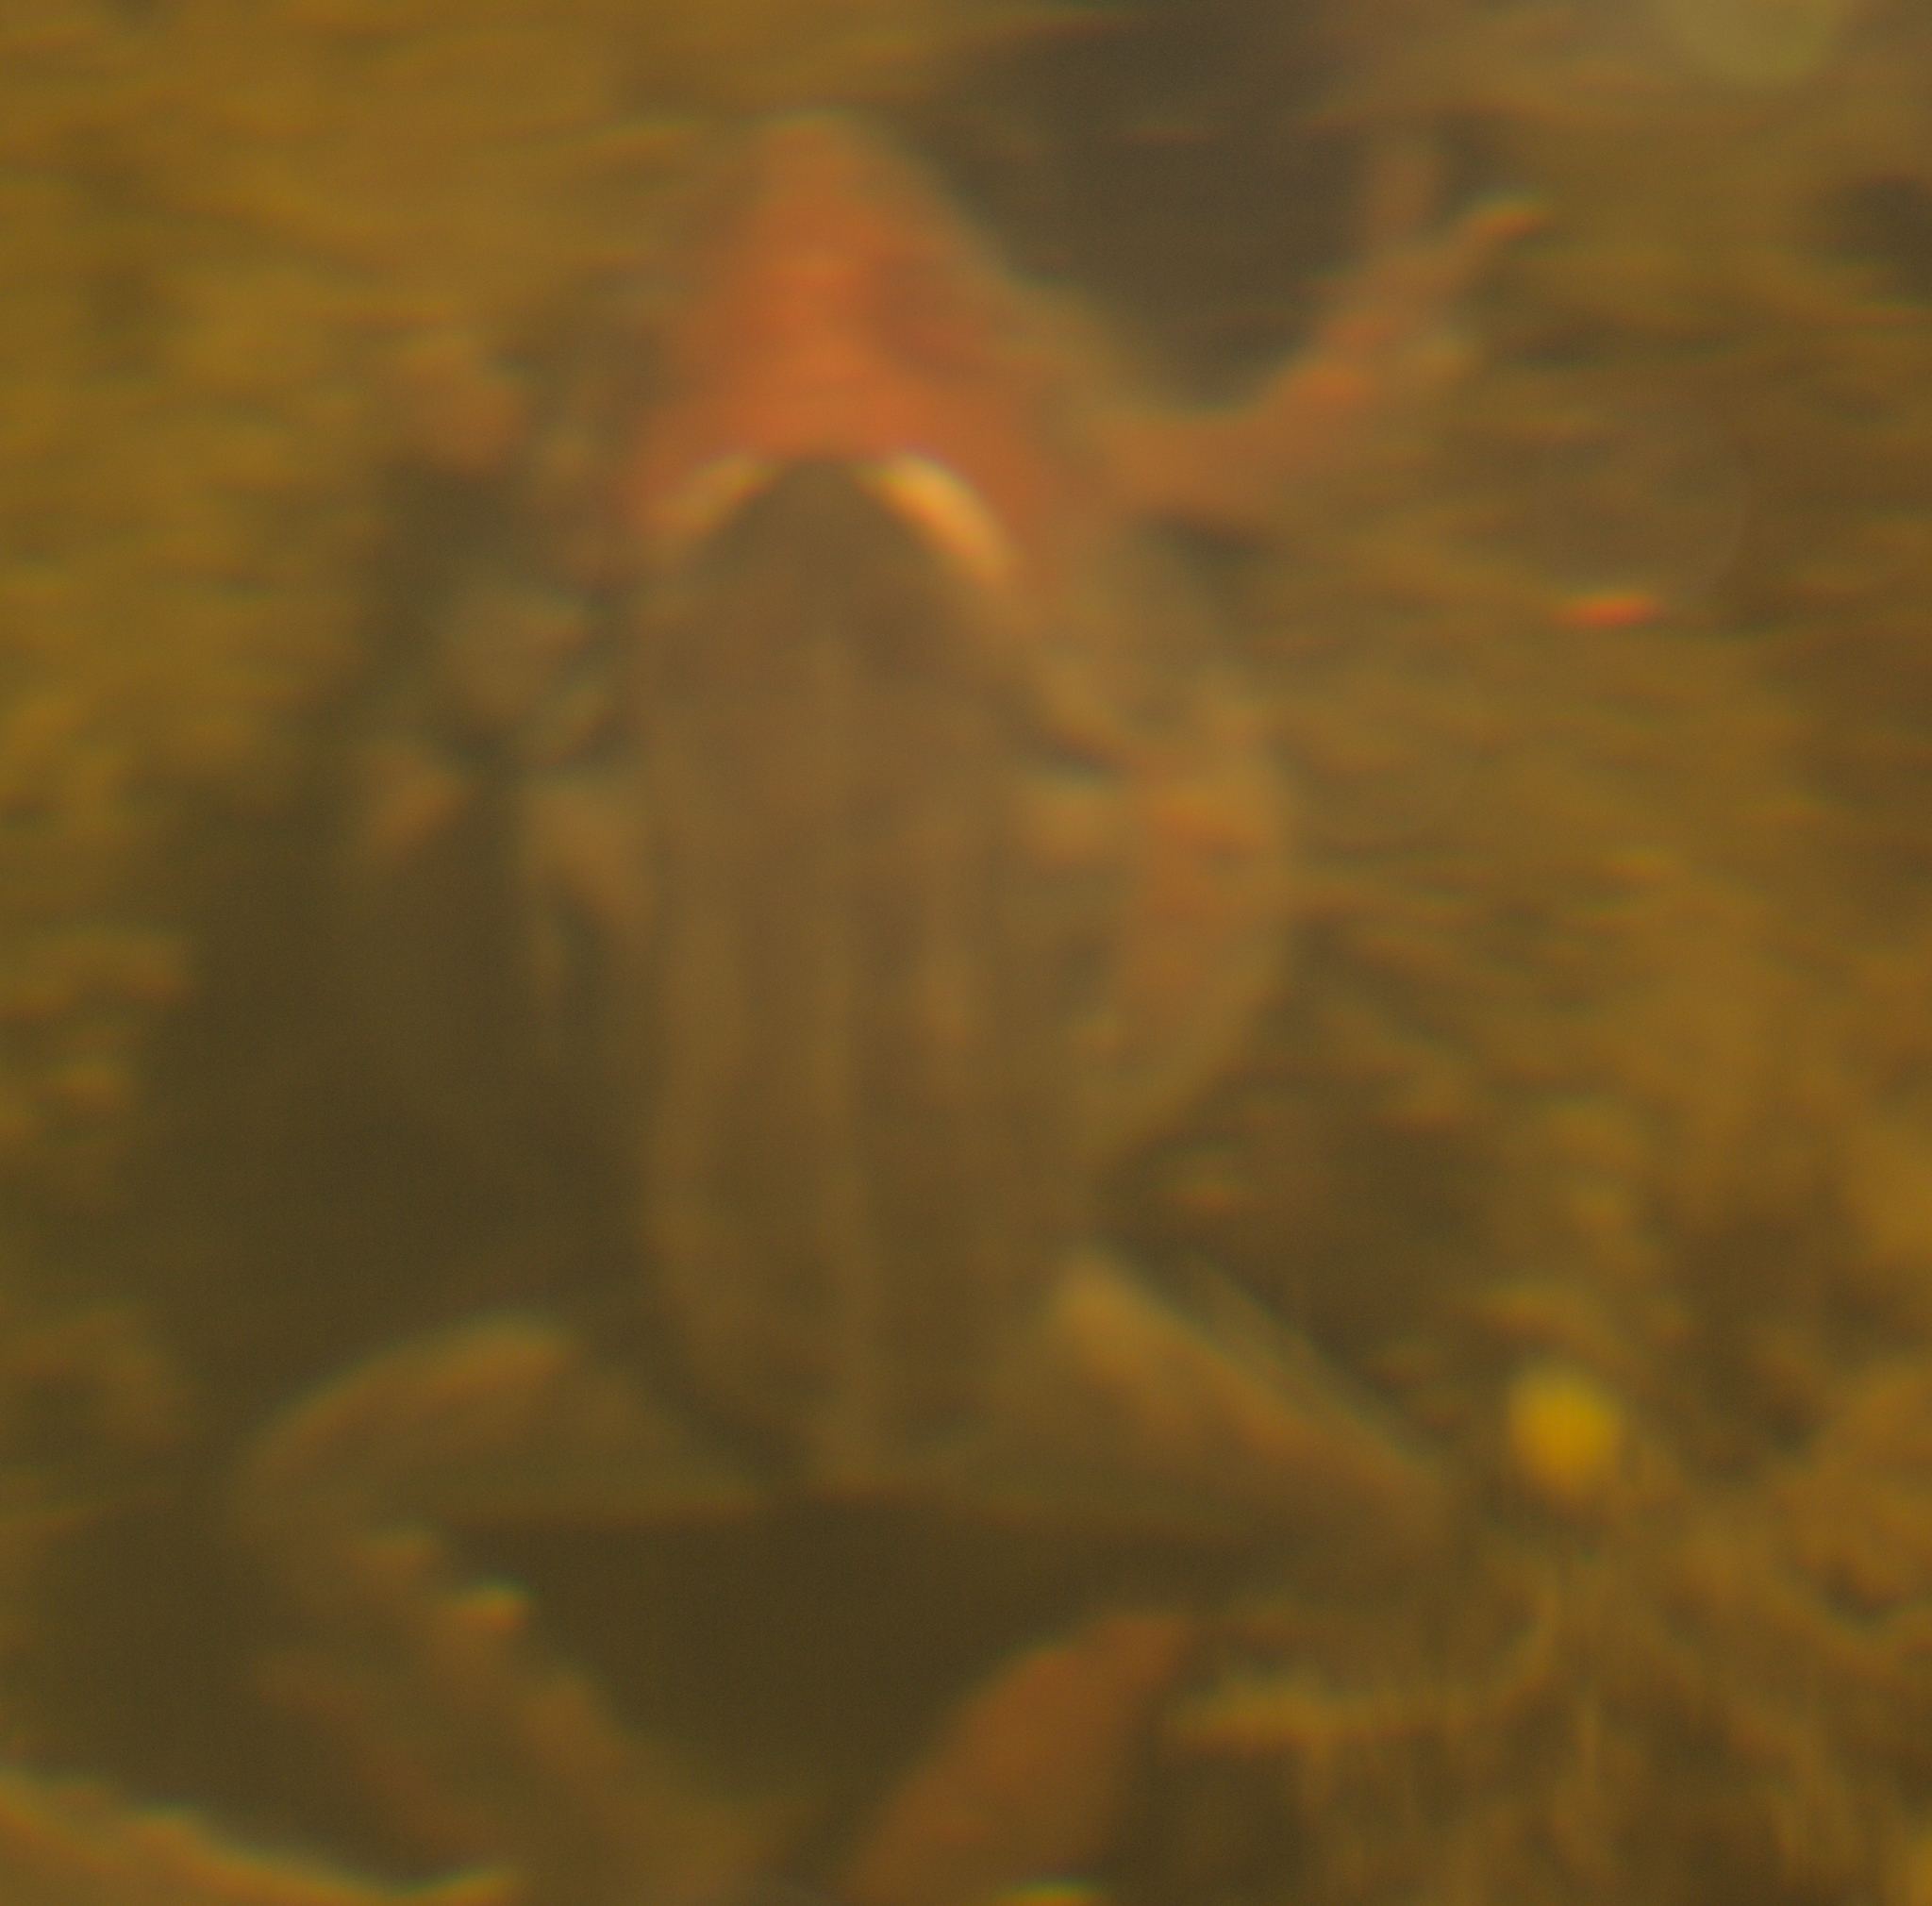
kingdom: Animalia
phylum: Chordata
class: Amphibia
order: Anura
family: Ranidae
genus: Lithobates
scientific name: Lithobates sylvaticus
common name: Wood frog
